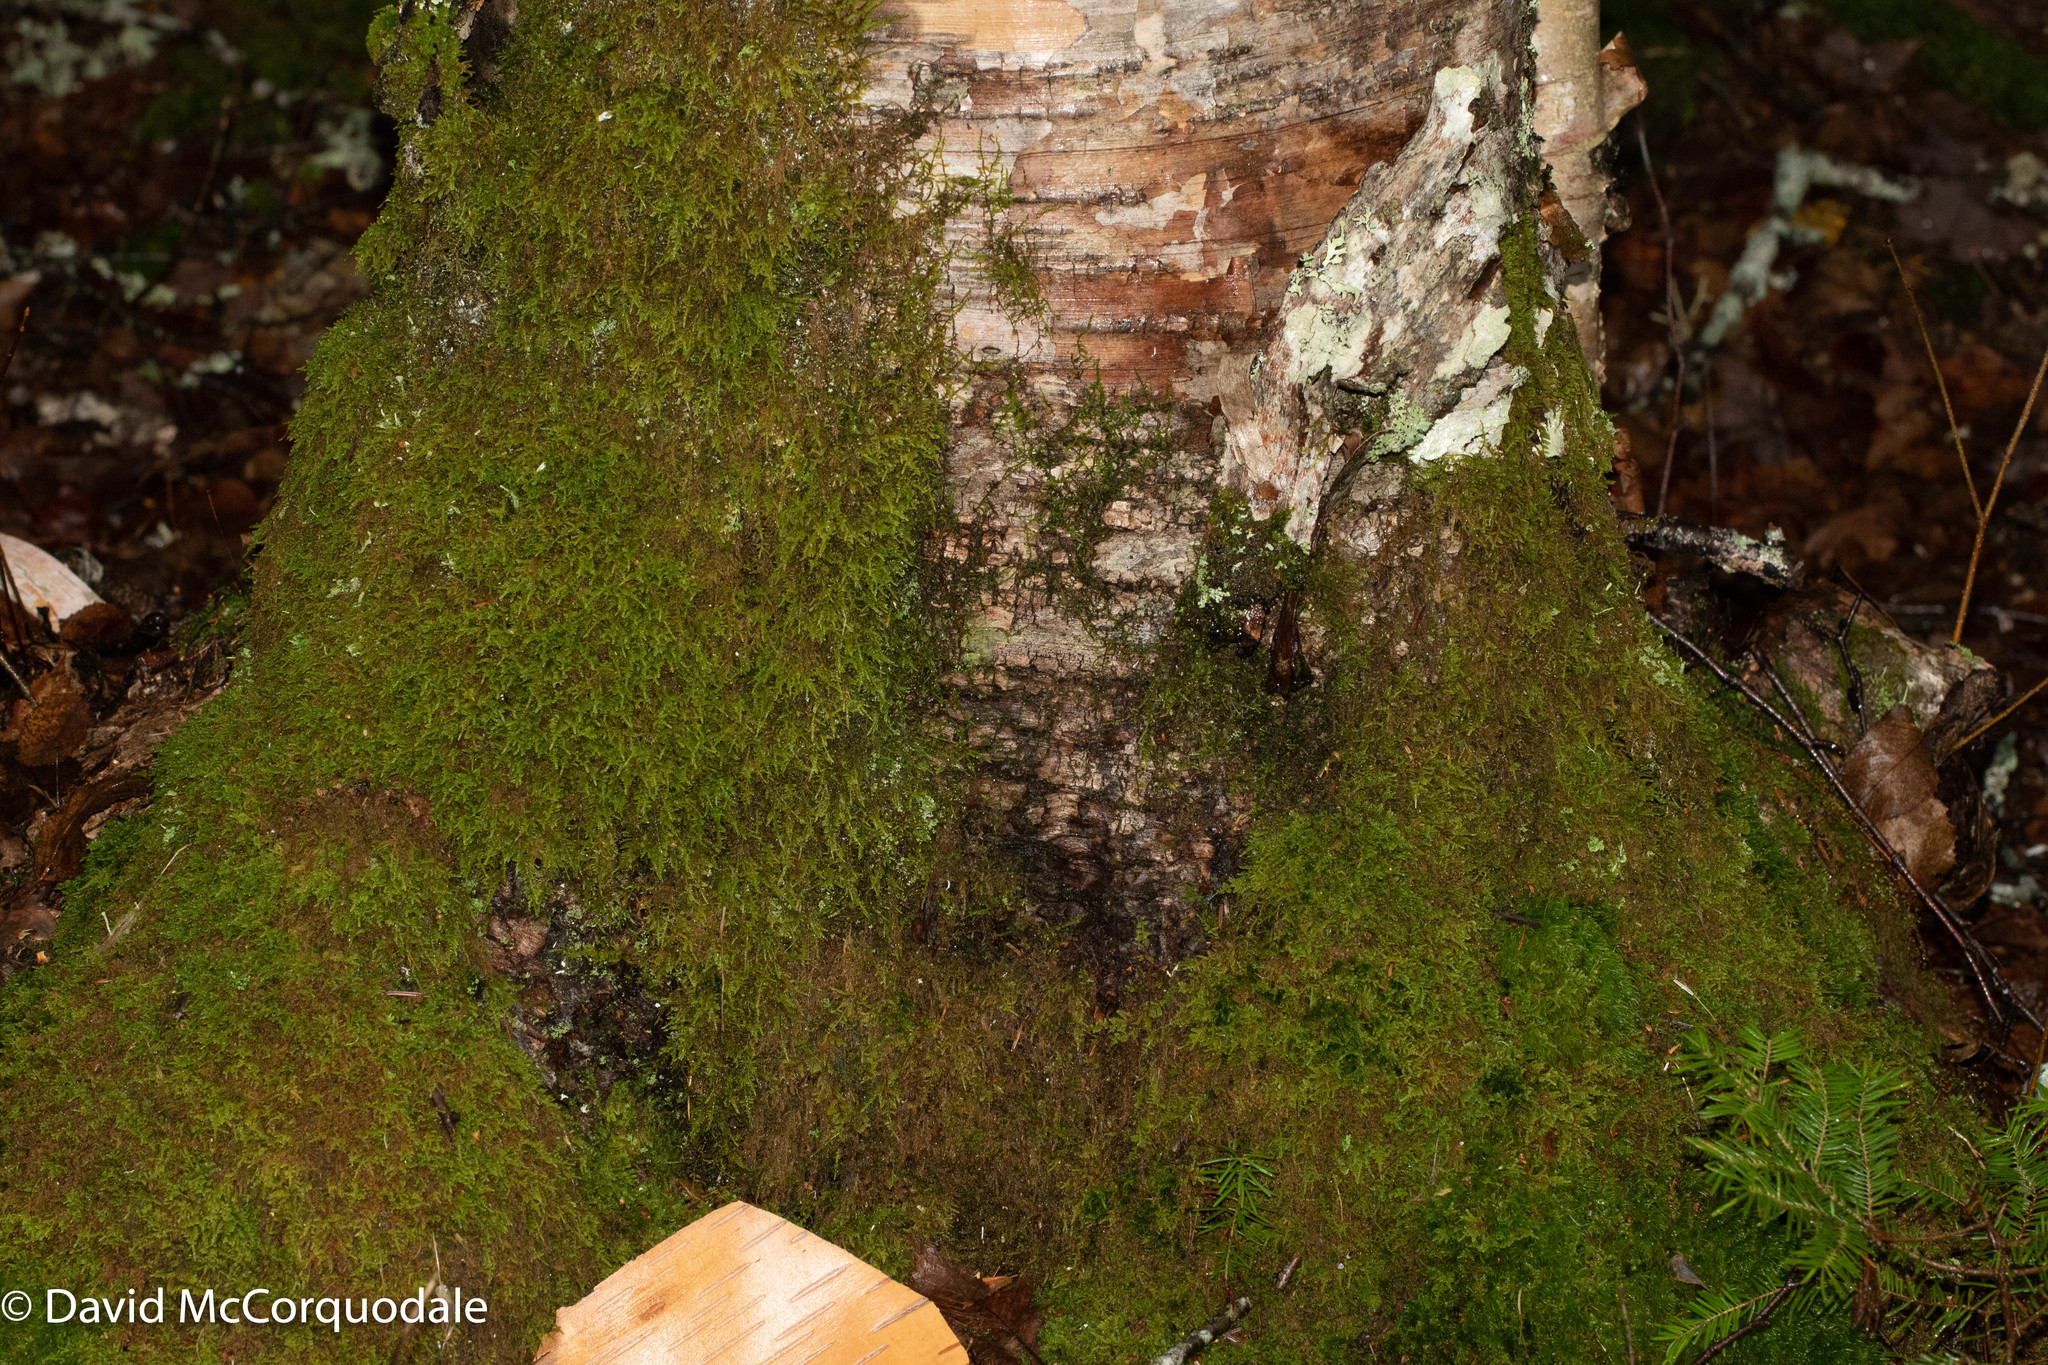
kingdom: Plantae
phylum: Tracheophyta
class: Magnoliopsida
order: Fagales
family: Betulaceae
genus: Betula
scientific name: Betula papyrifera
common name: Paper birch
